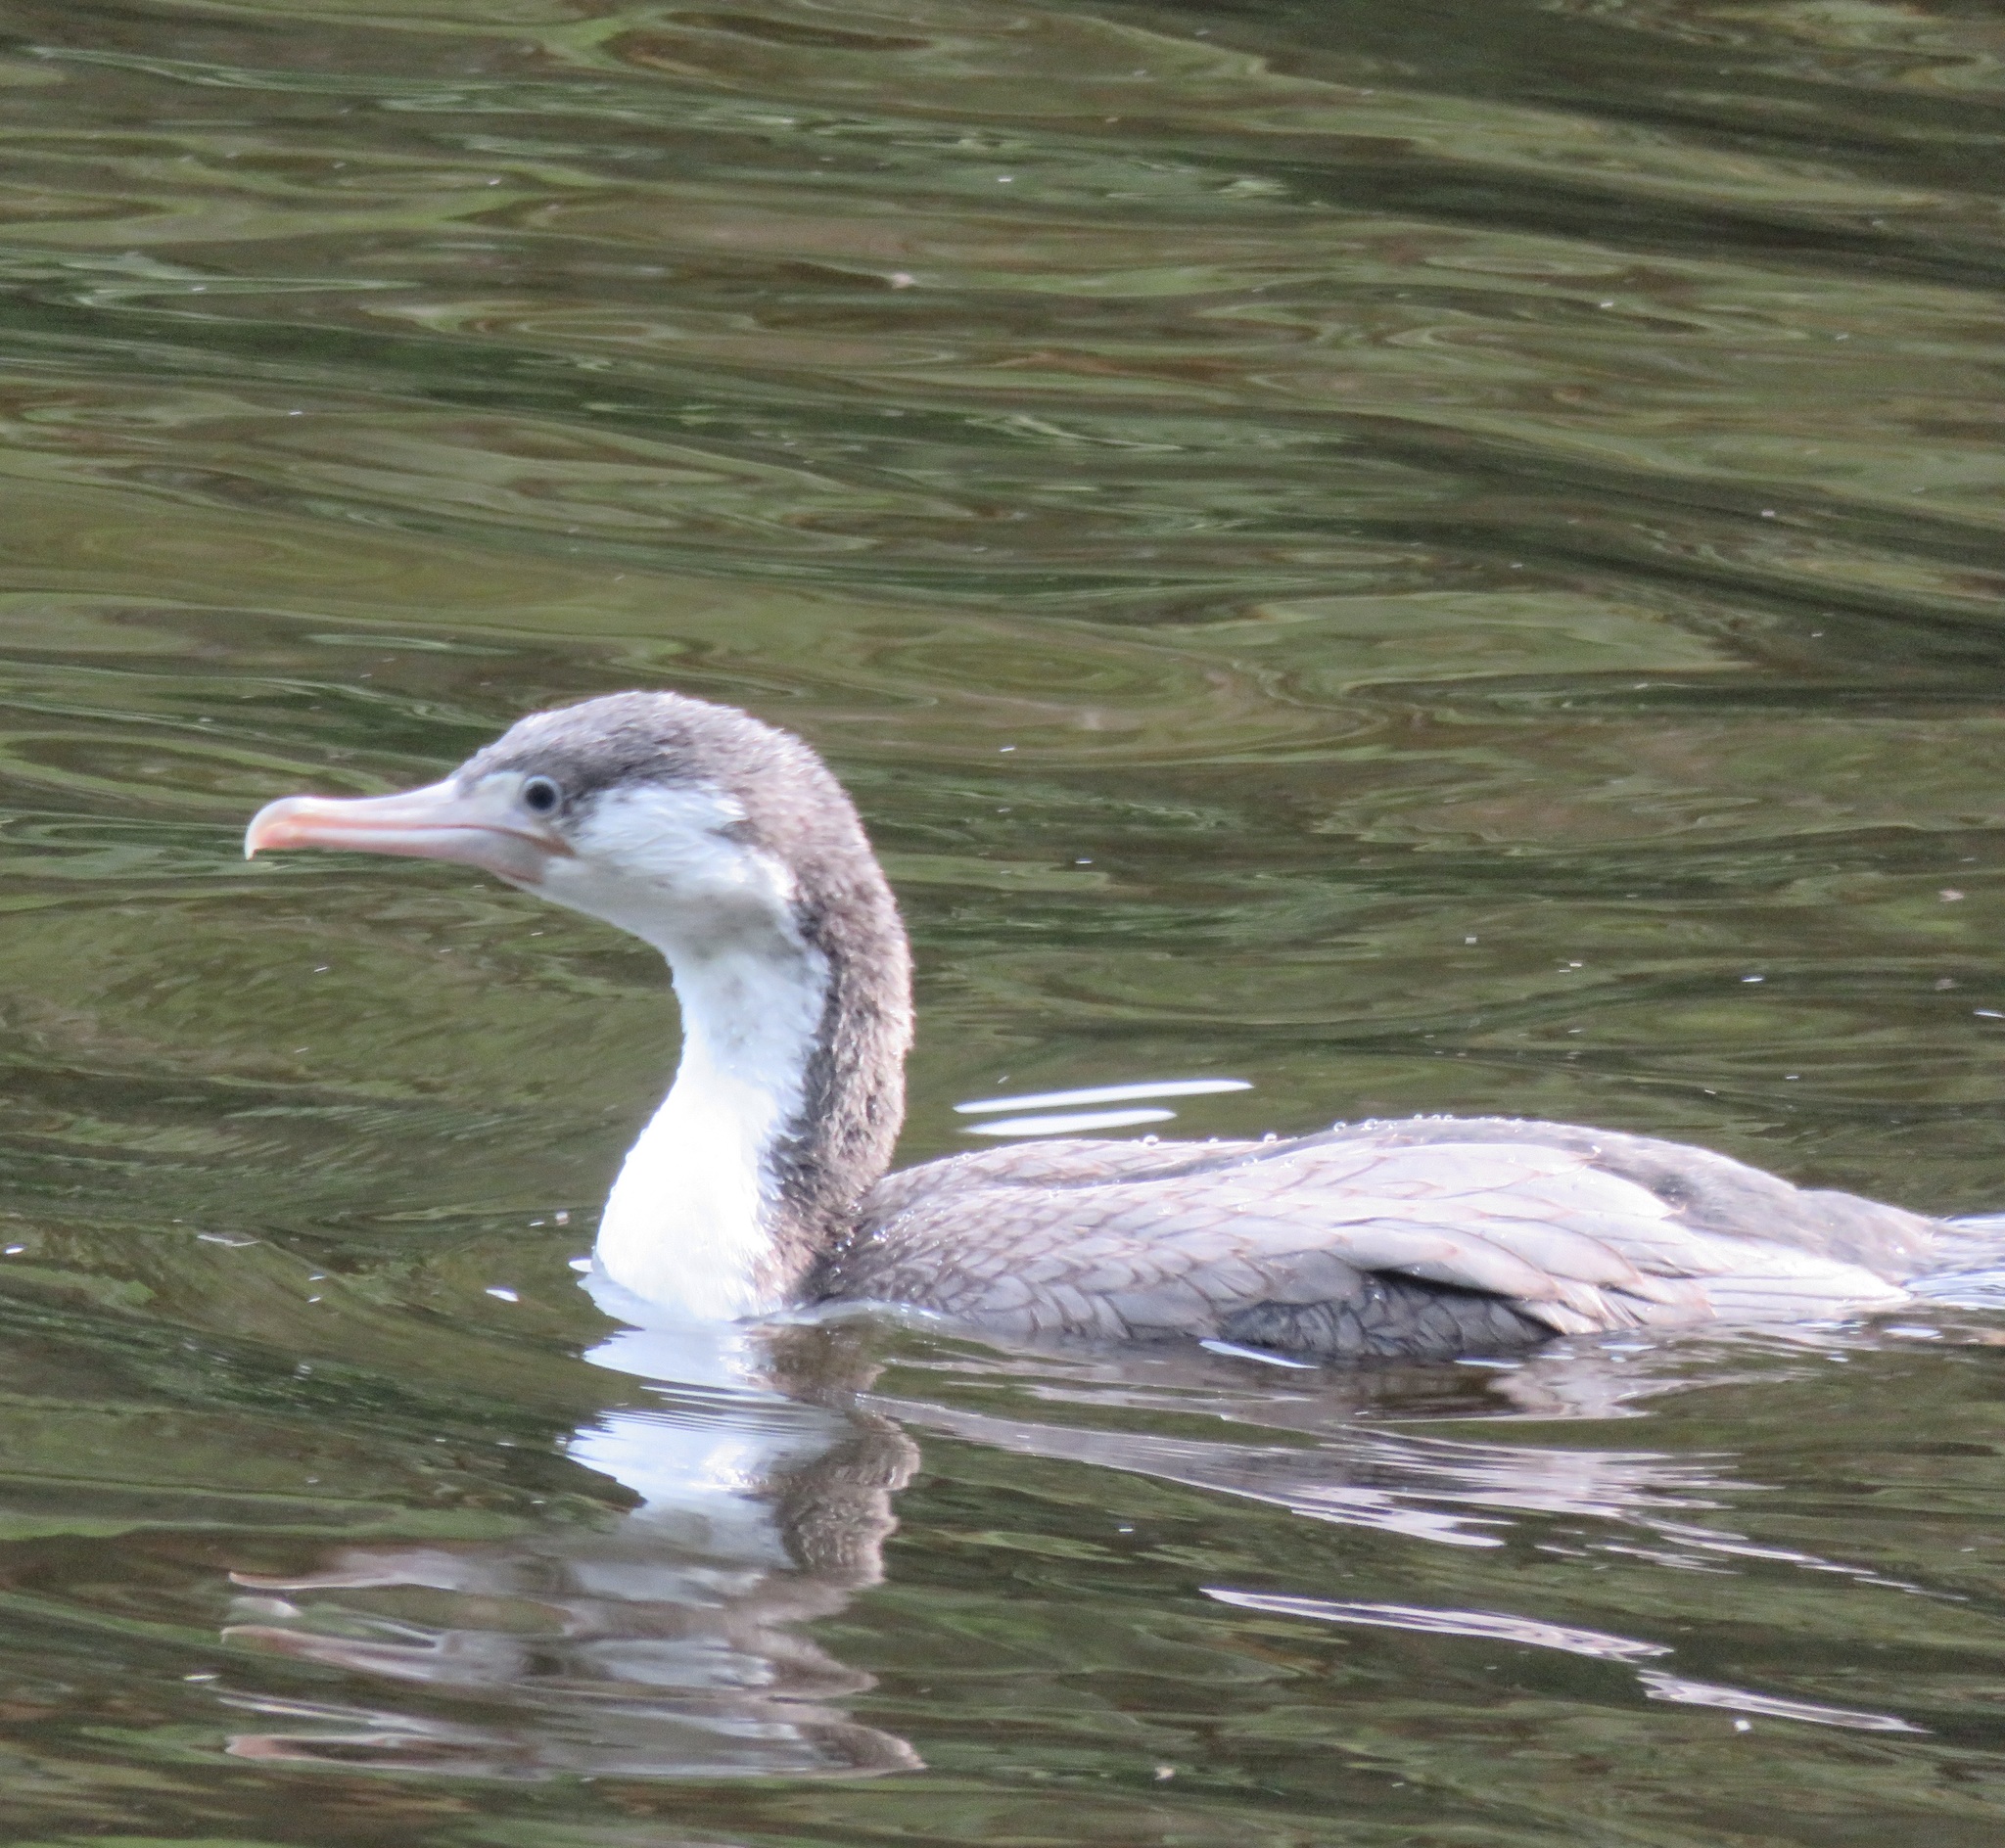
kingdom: Animalia
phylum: Chordata
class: Aves
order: Suliformes
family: Phalacrocoracidae
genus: Phalacrocorax
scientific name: Phalacrocorax varius
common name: Pied cormorant
